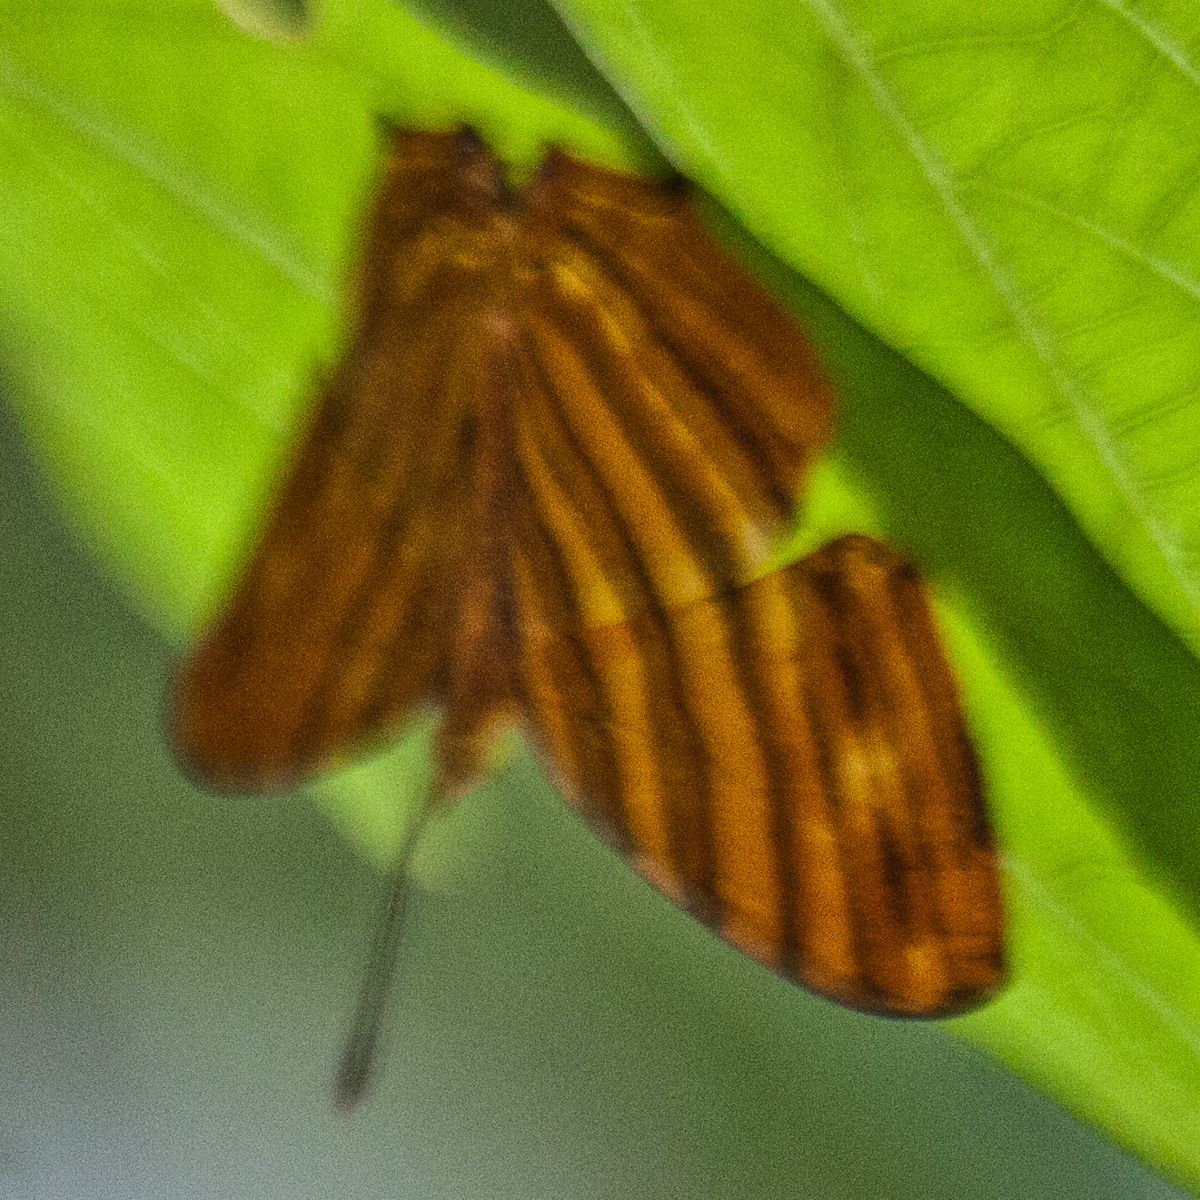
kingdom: Animalia
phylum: Arthropoda
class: Insecta
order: Lepidoptera
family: Nymphalidae
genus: Chersonesia
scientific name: Chersonesia risa
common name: Common maplet
